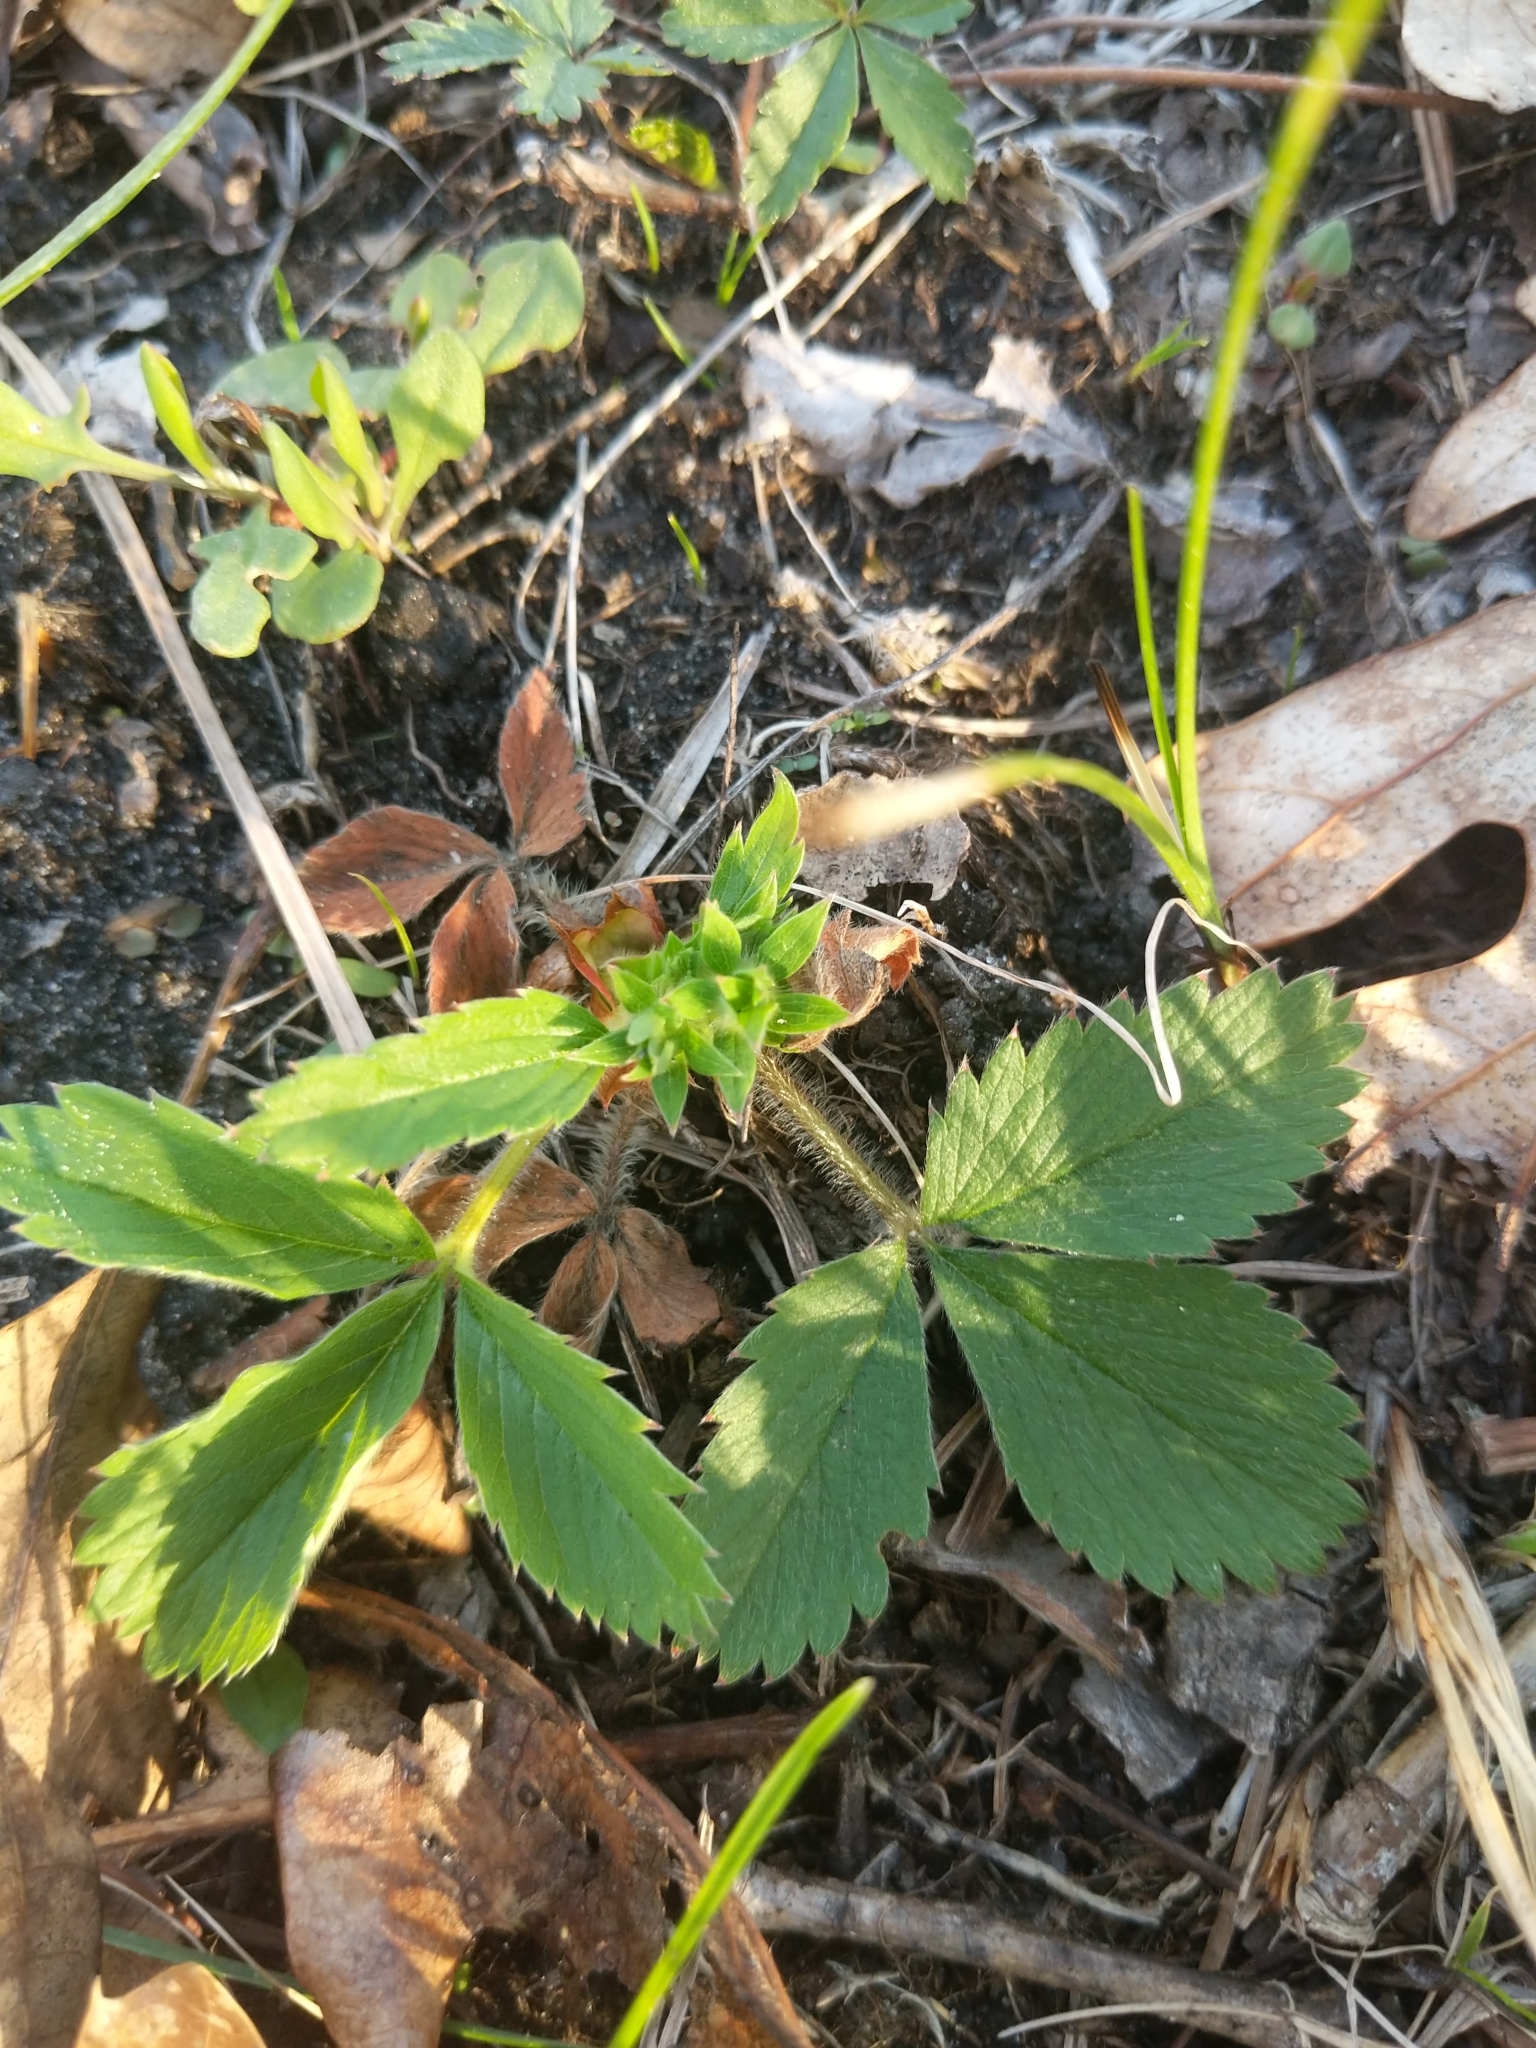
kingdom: Plantae
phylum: Tracheophyta
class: Magnoliopsida
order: Rosales
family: Rosaceae
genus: Fragaria
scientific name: Fragaria virginiana
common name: Thickleaved wild strawberry
